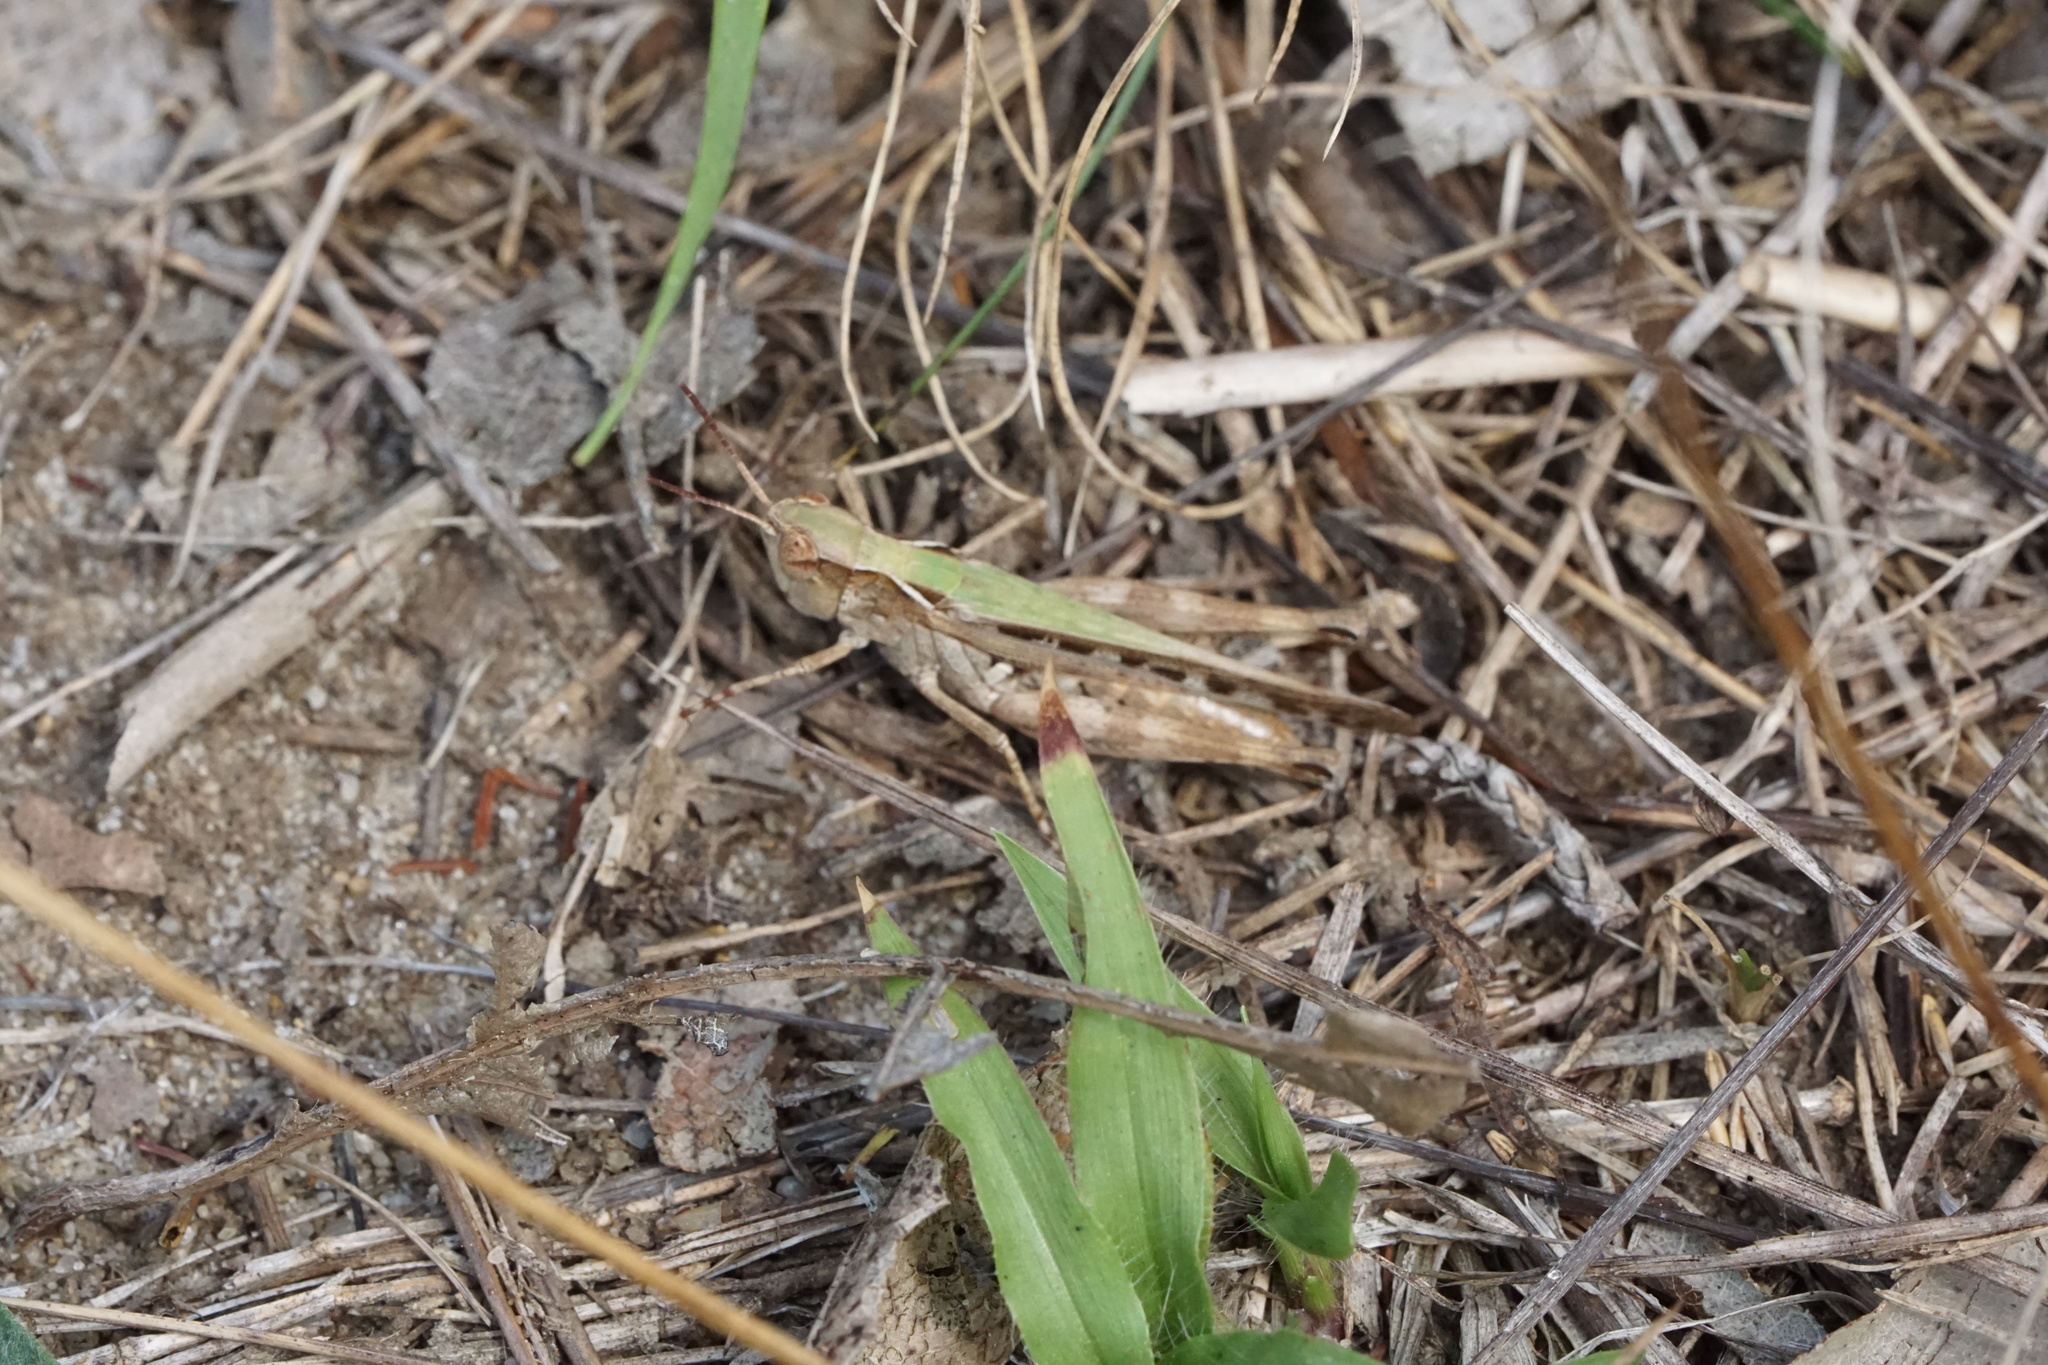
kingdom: Animalia
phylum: Arthropoda
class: Insecta
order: Orthoptera
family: Acrididae
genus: Orphulella
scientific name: Orphulella pelidna
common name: Spotted-wing grasshopper
